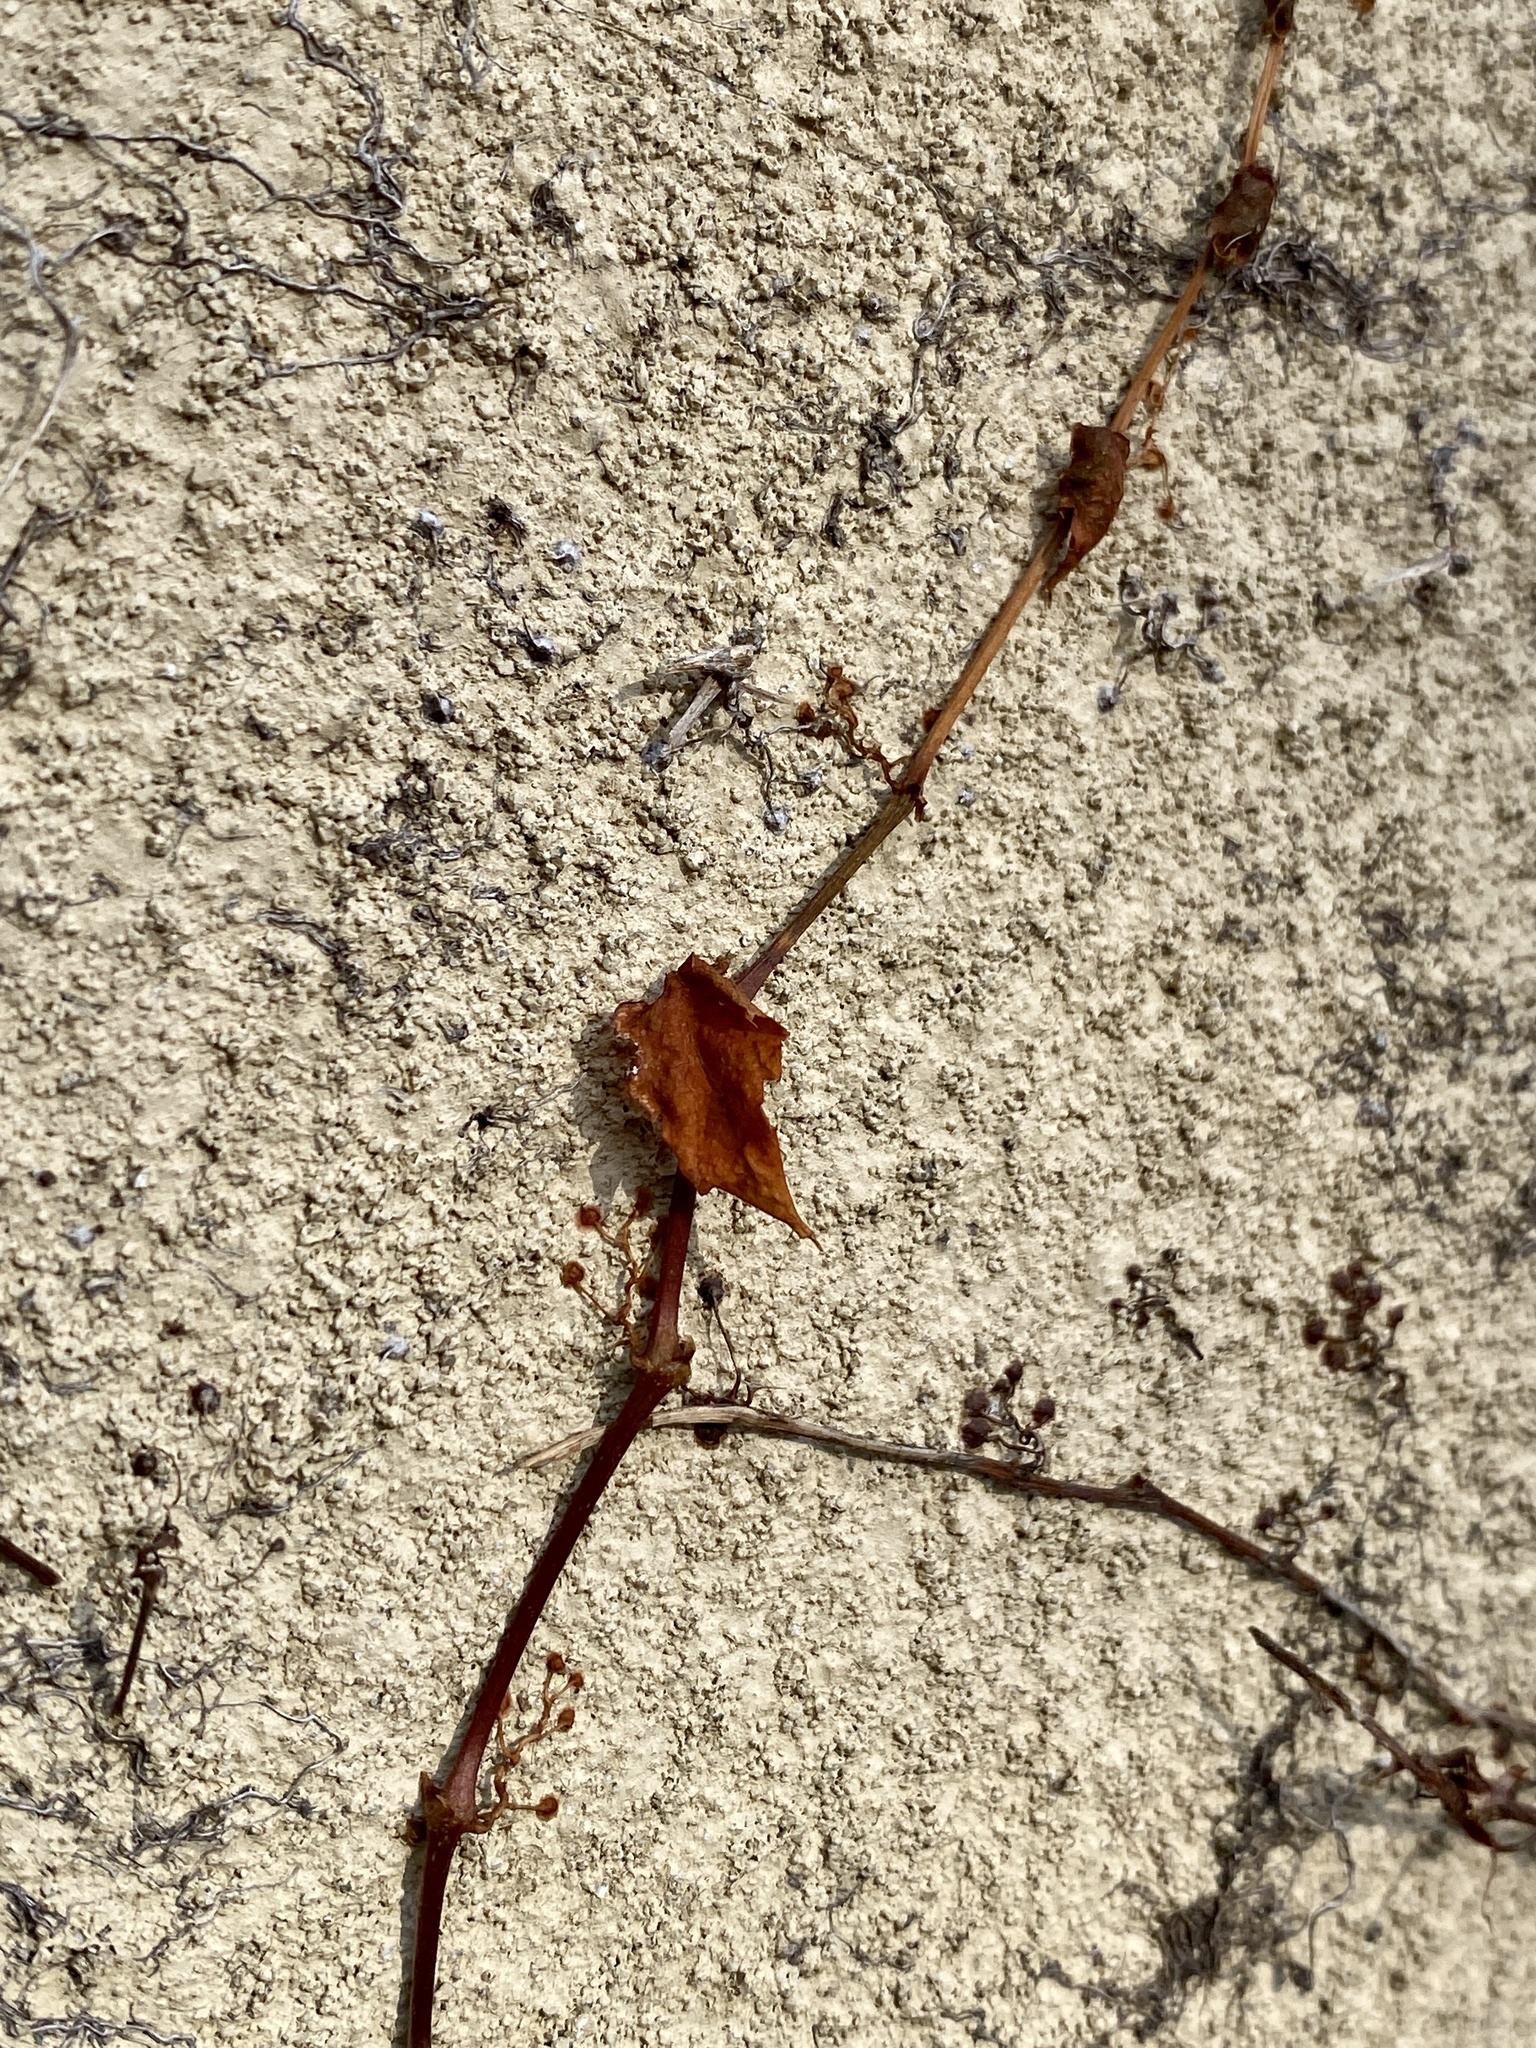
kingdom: Plantae
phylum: Tracheophyta
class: Magnoliopsida
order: Vitales
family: Vitaceae
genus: Parthenocissus
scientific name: Parthenocissus tricuspidata
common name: Boston ivy
